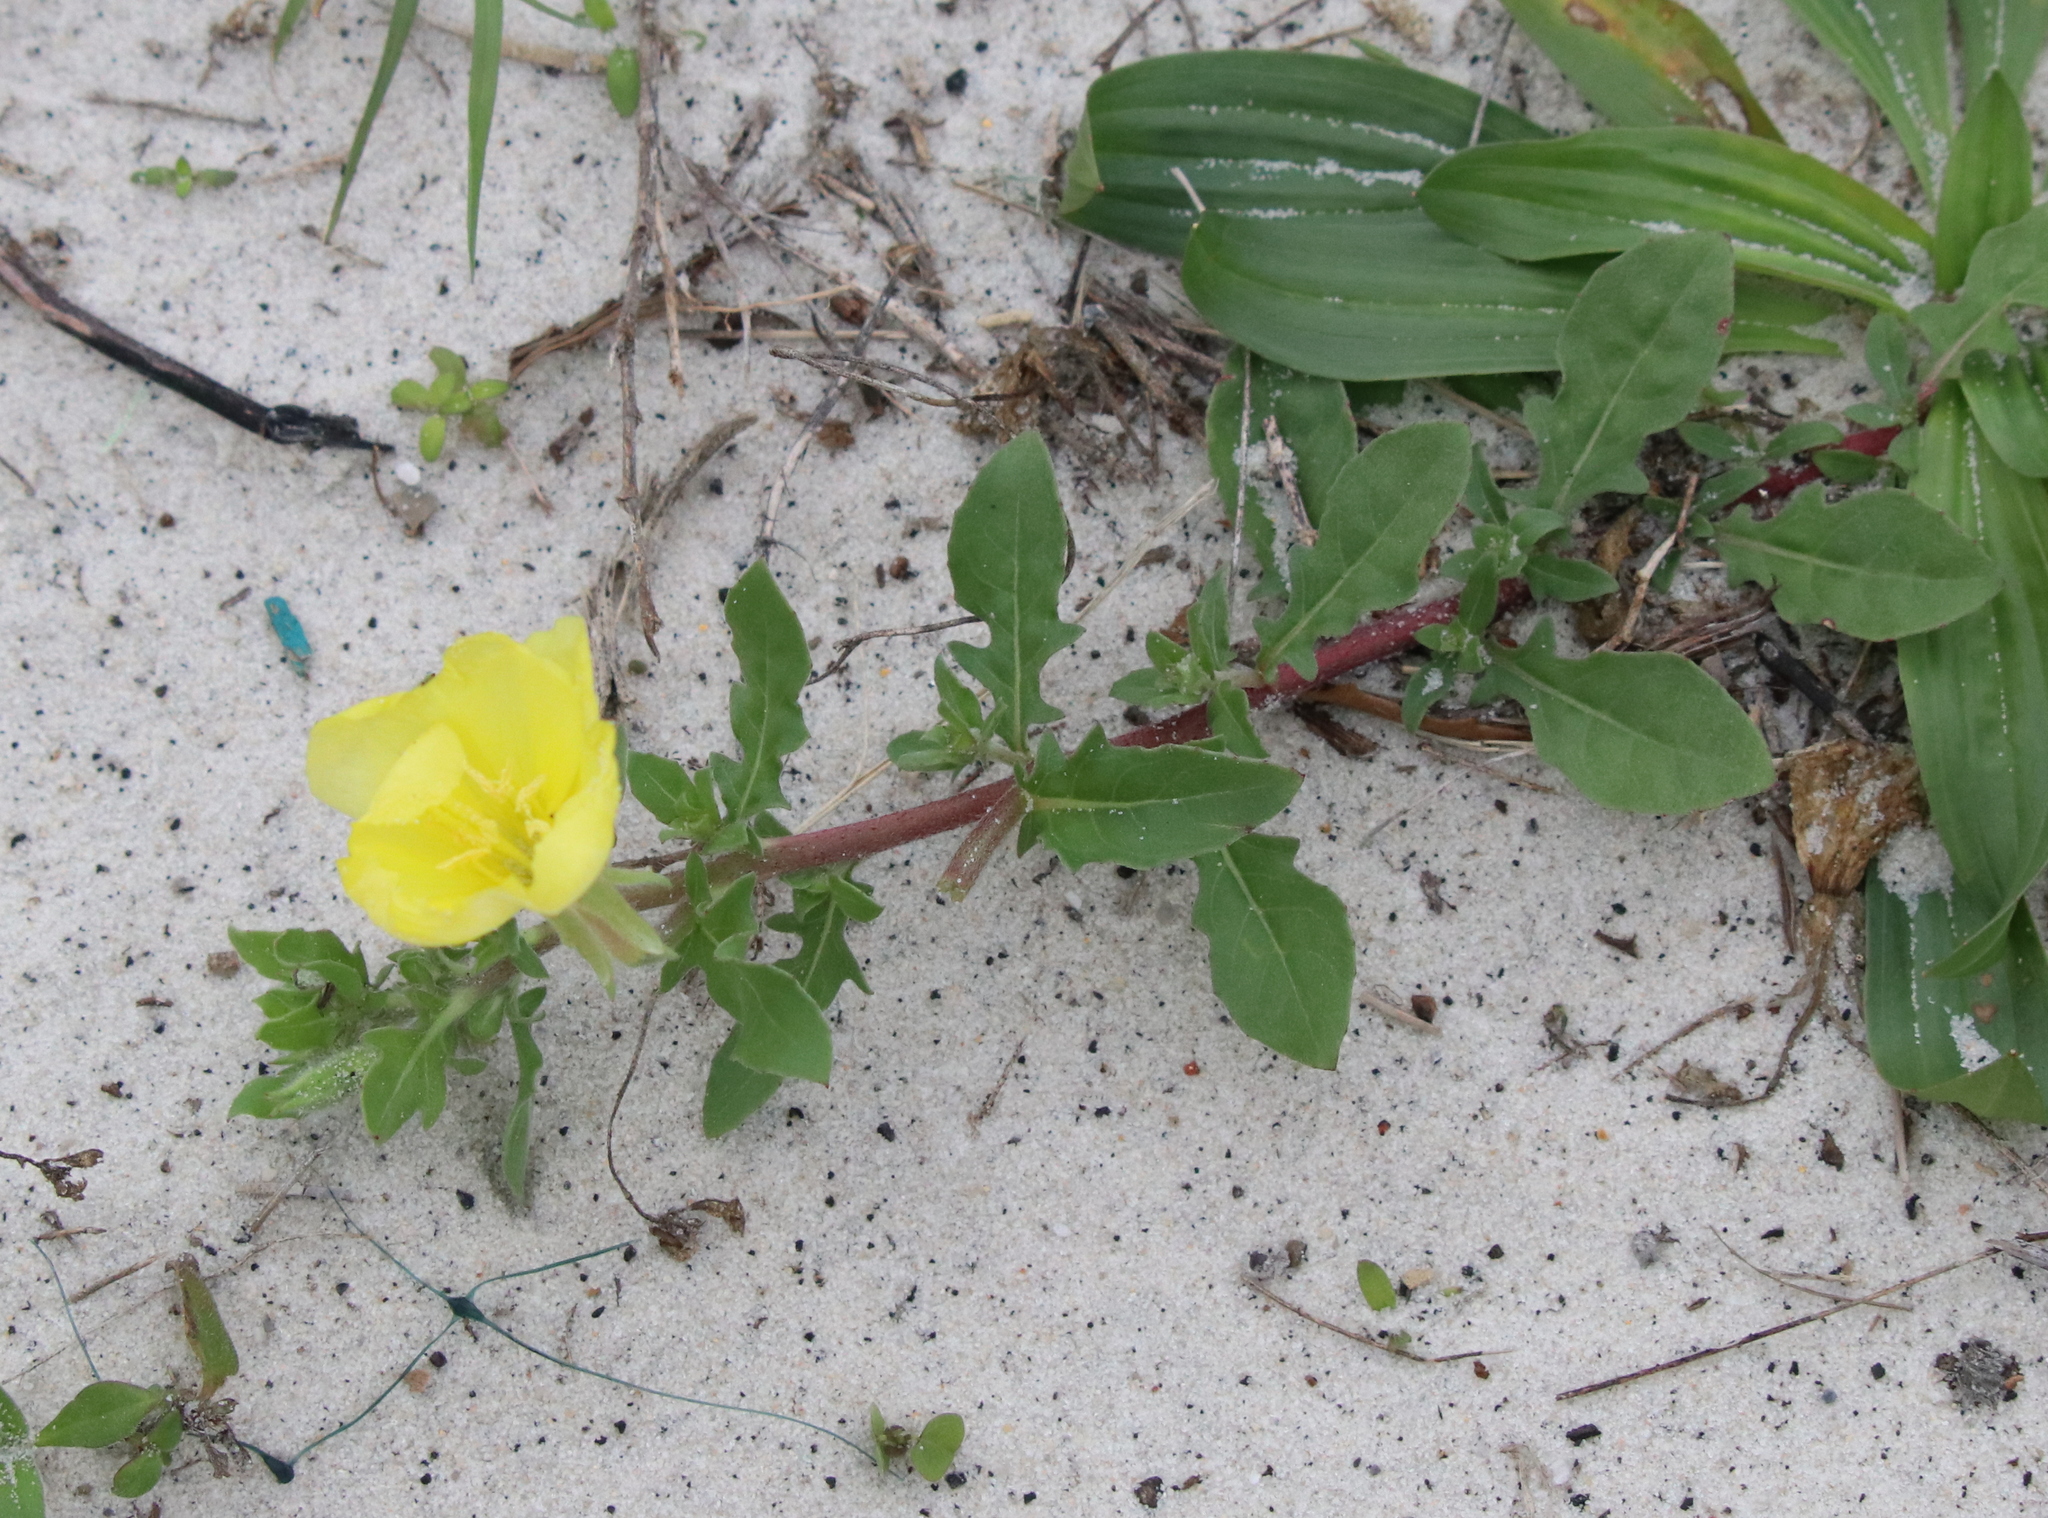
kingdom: Plantae
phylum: Tracheophyta
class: Magnoliopsida
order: Myrtales
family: Onagraceae
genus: Oenothera
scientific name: Oenothera humifusa
